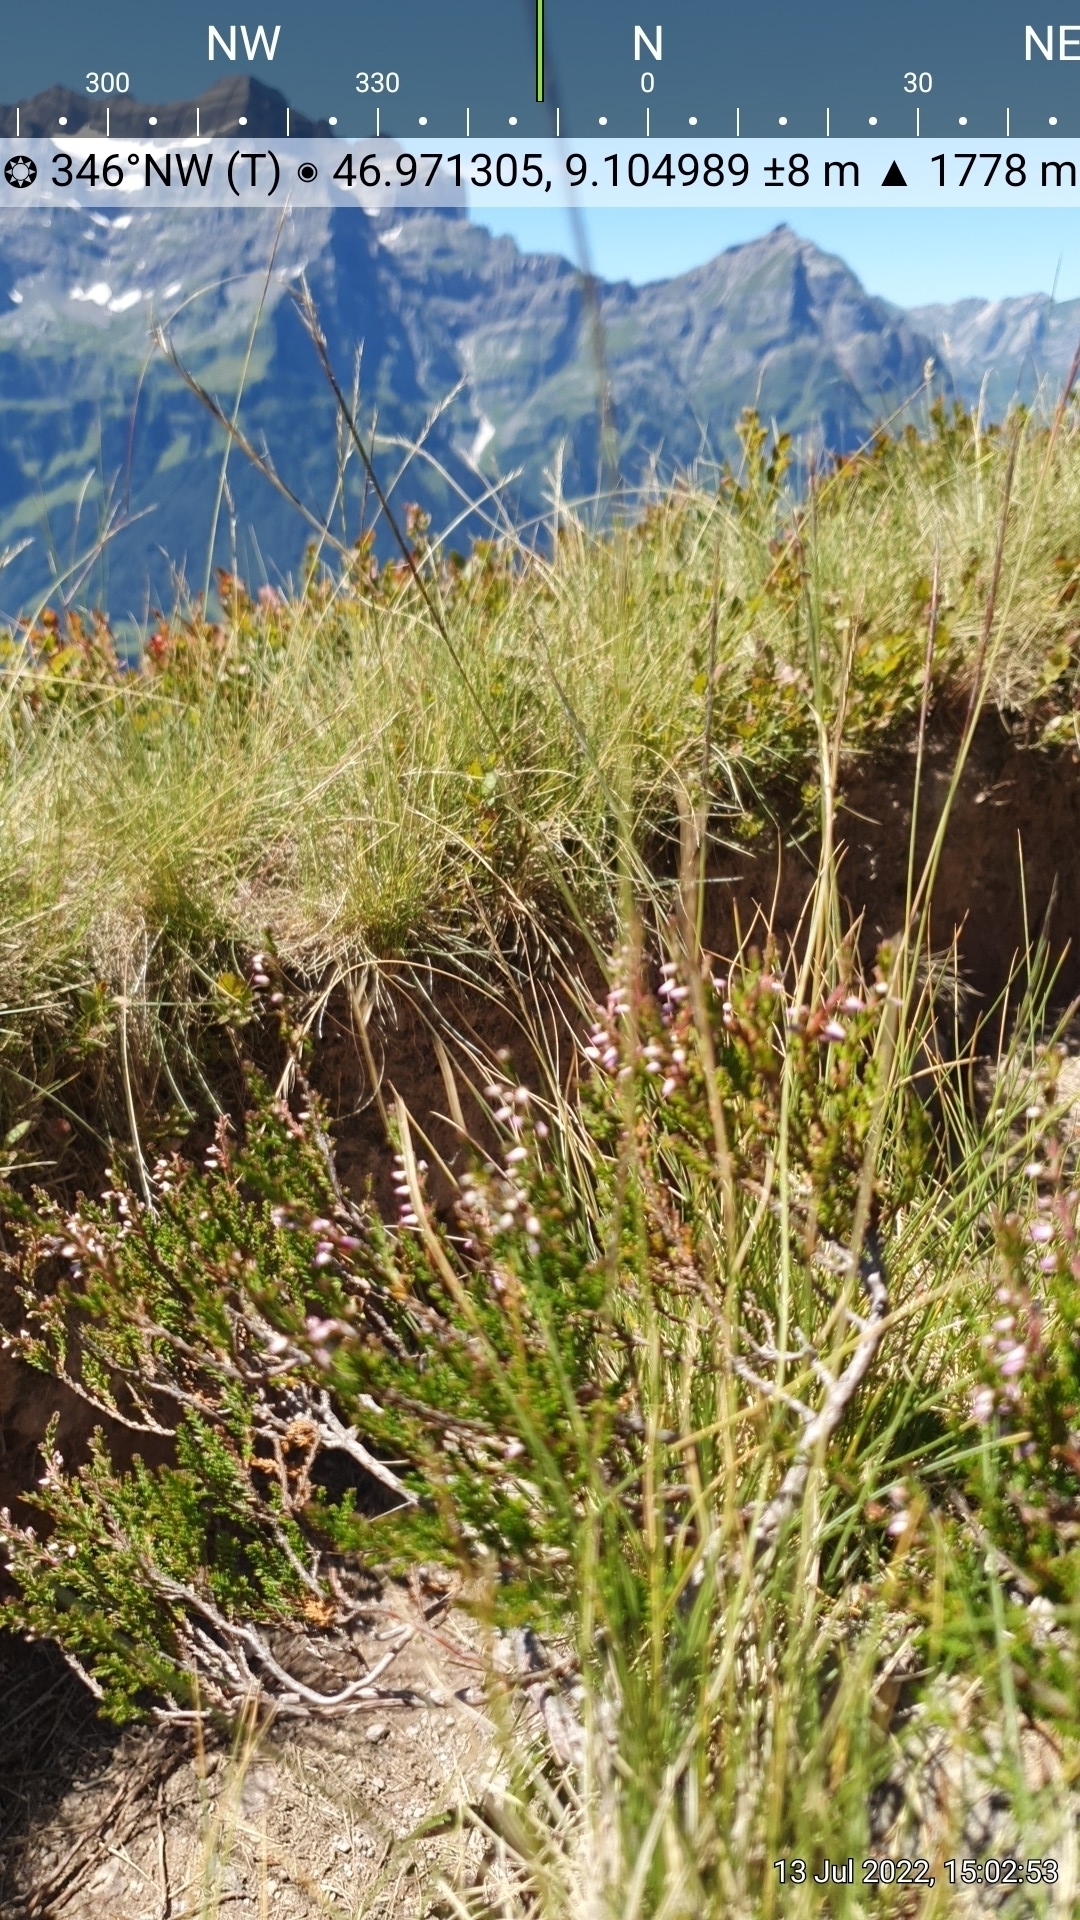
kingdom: Plantae
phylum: Tracheophyta
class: Magnoliopsida
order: Ericales
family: Ericaceae
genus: Vaccinium
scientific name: Vaccinium myrtillus
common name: Bilberry
